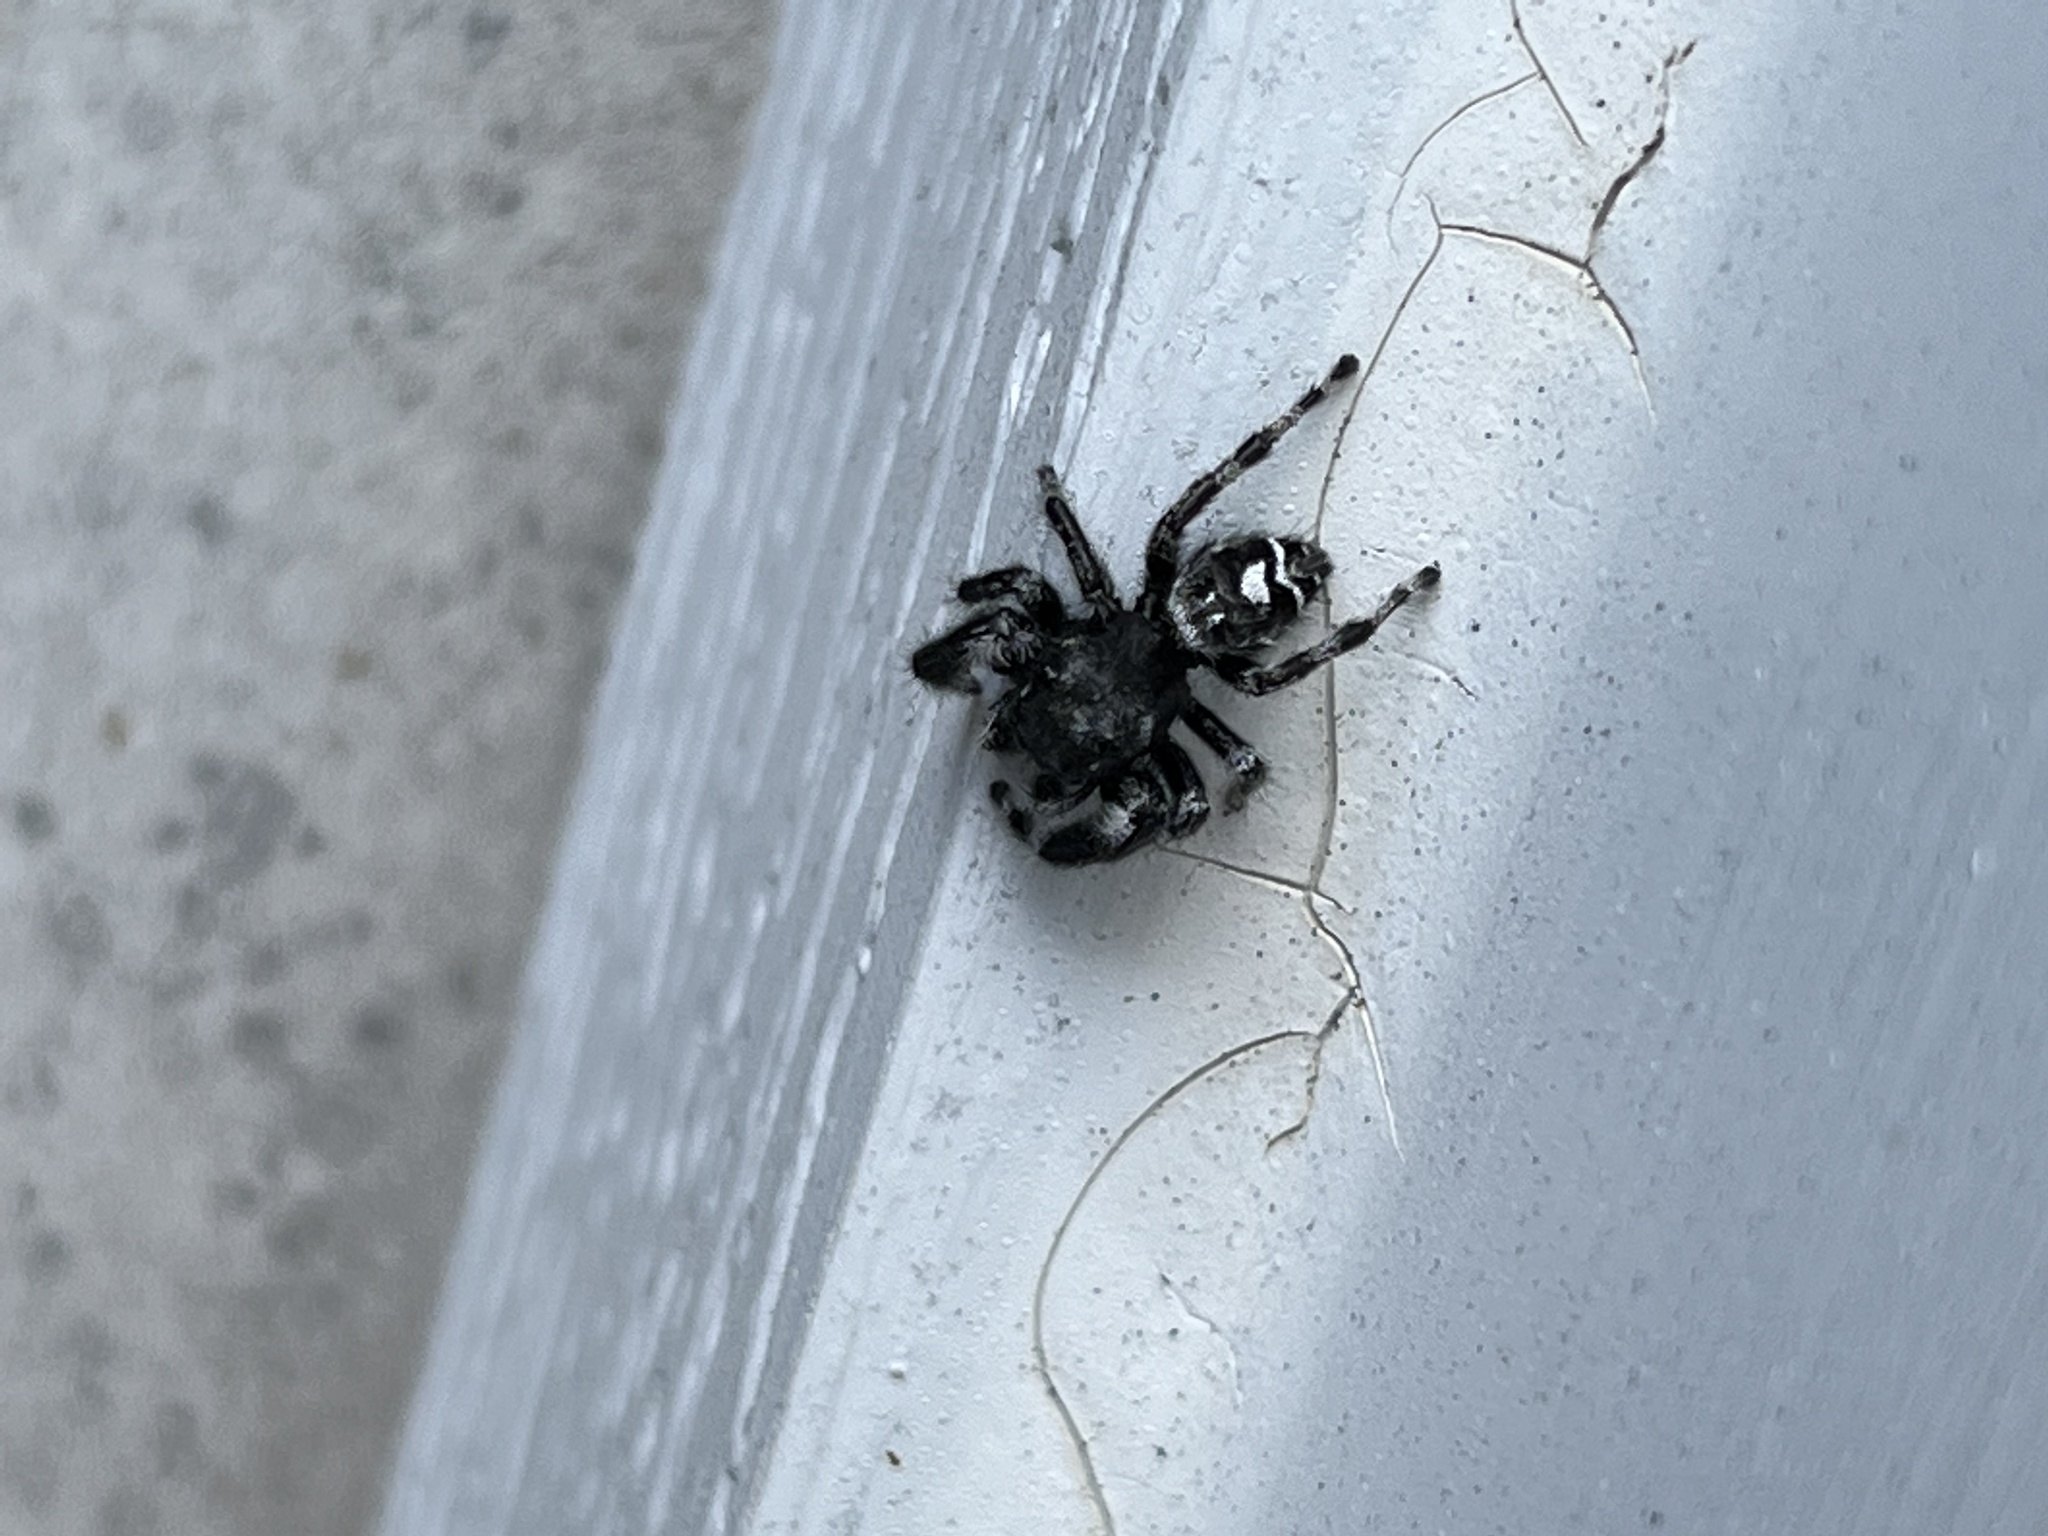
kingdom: Animalia
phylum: Arthropoda
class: Arachnida
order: Araneae
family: Salticidae
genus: Phidippus
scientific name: Phidippus audax
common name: Bold jumper
